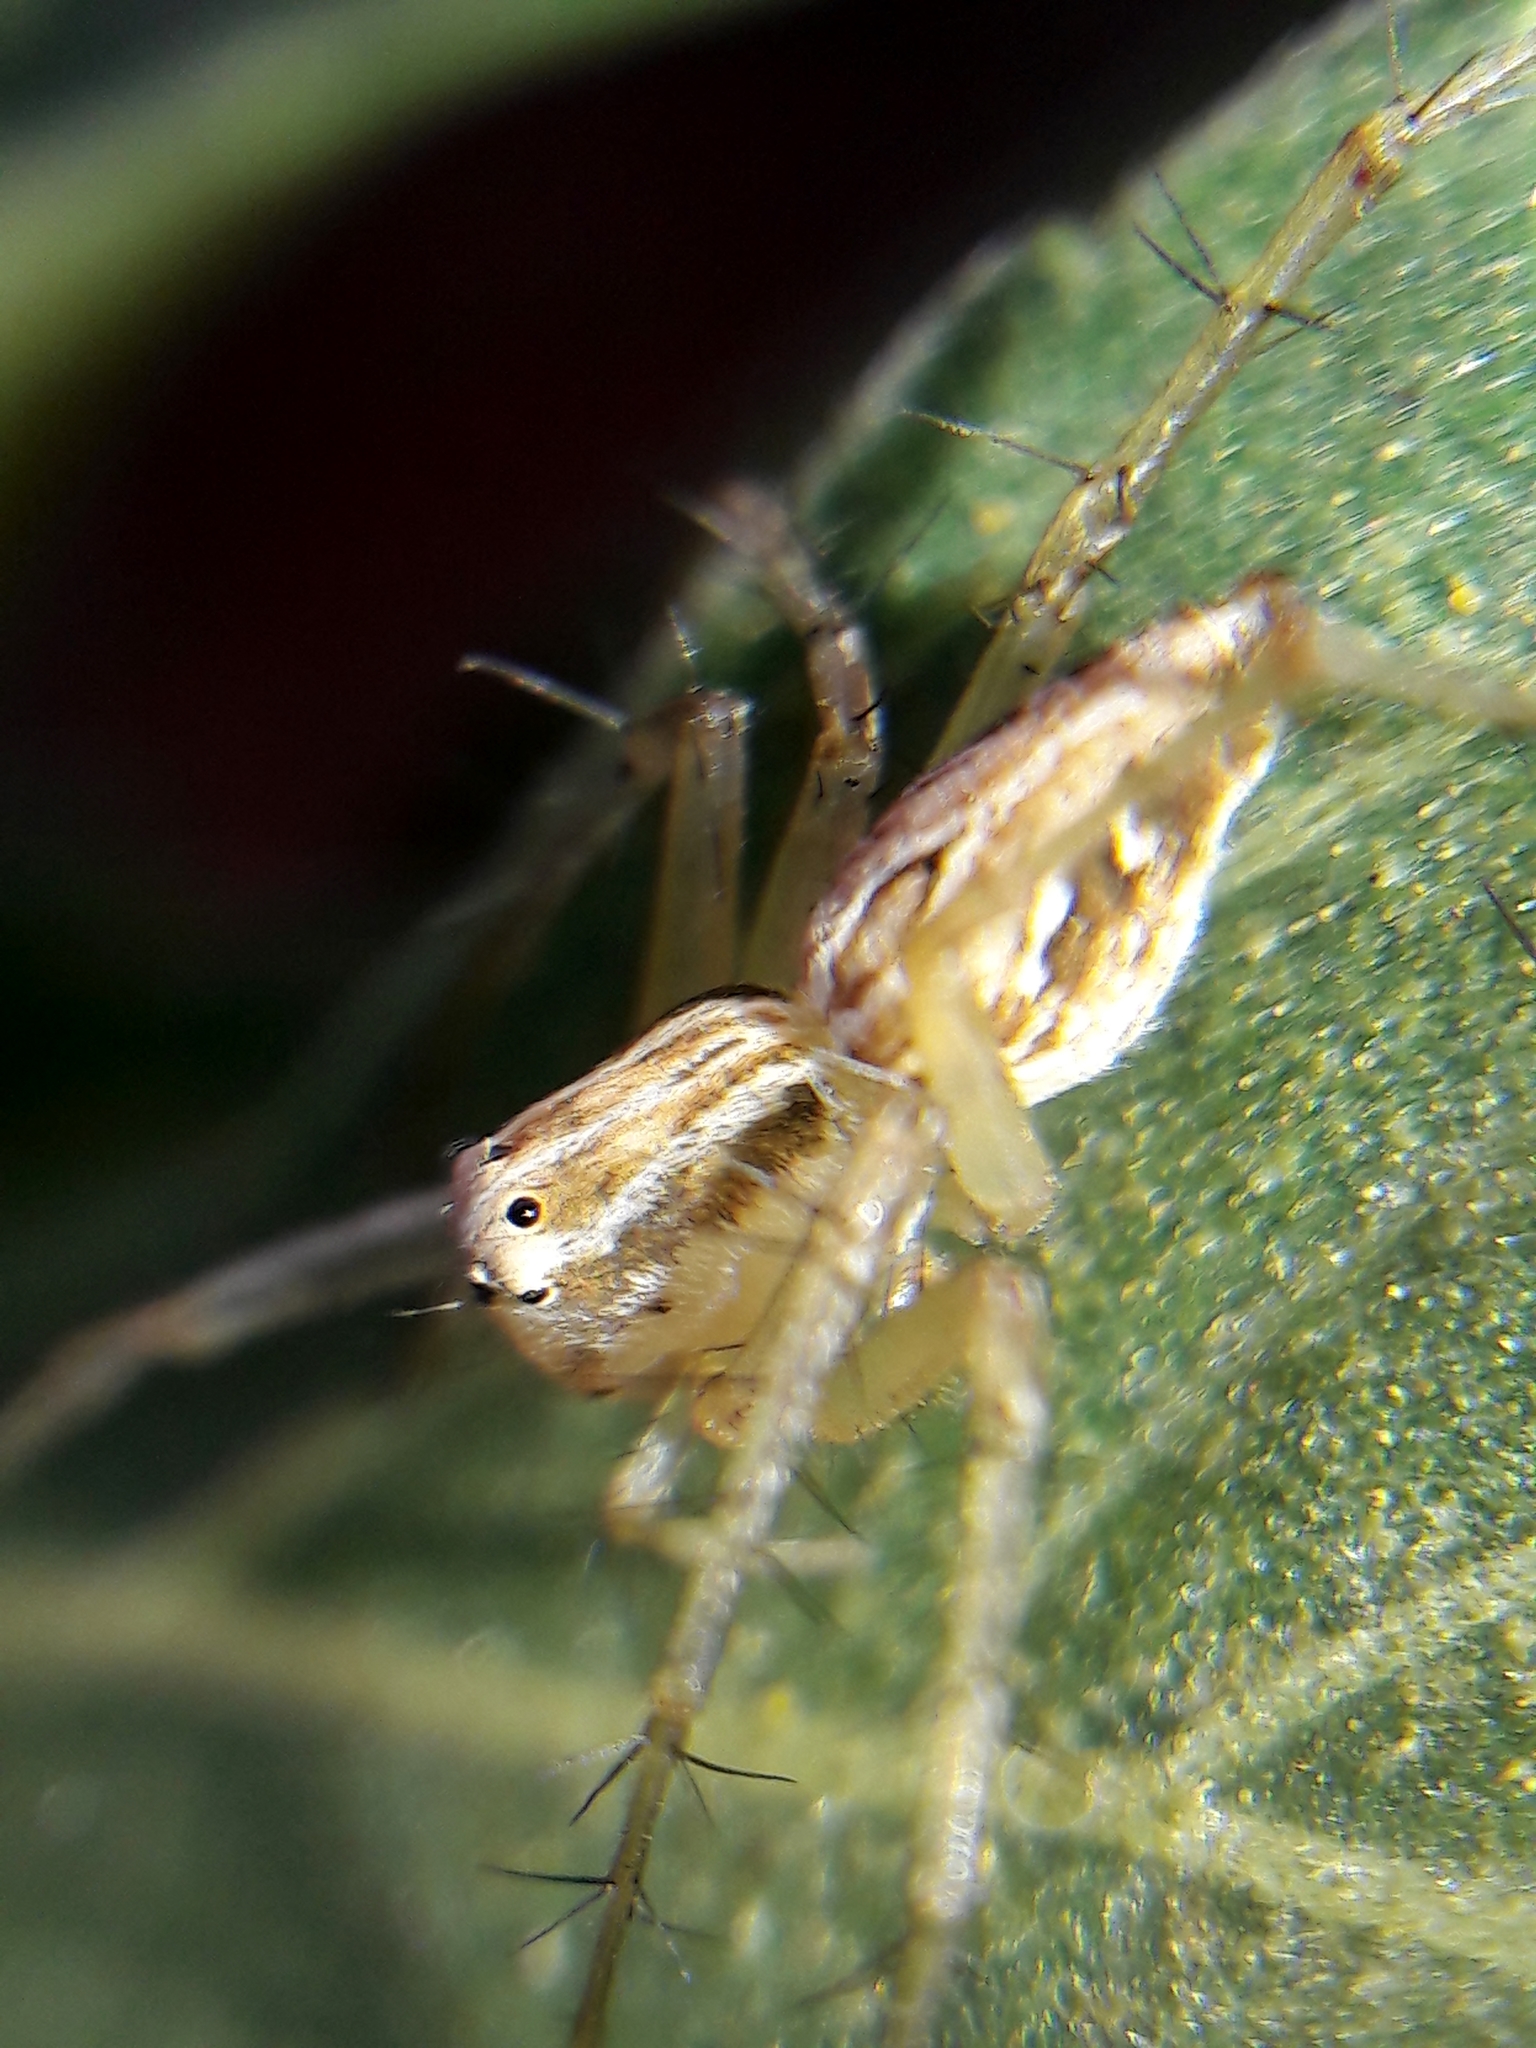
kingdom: Animalia
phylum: Arthropoda
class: Arachnida
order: Araneae
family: Oxyopidae
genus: Oxyopes
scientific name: Oxyopes salticus
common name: Lynx spiders
